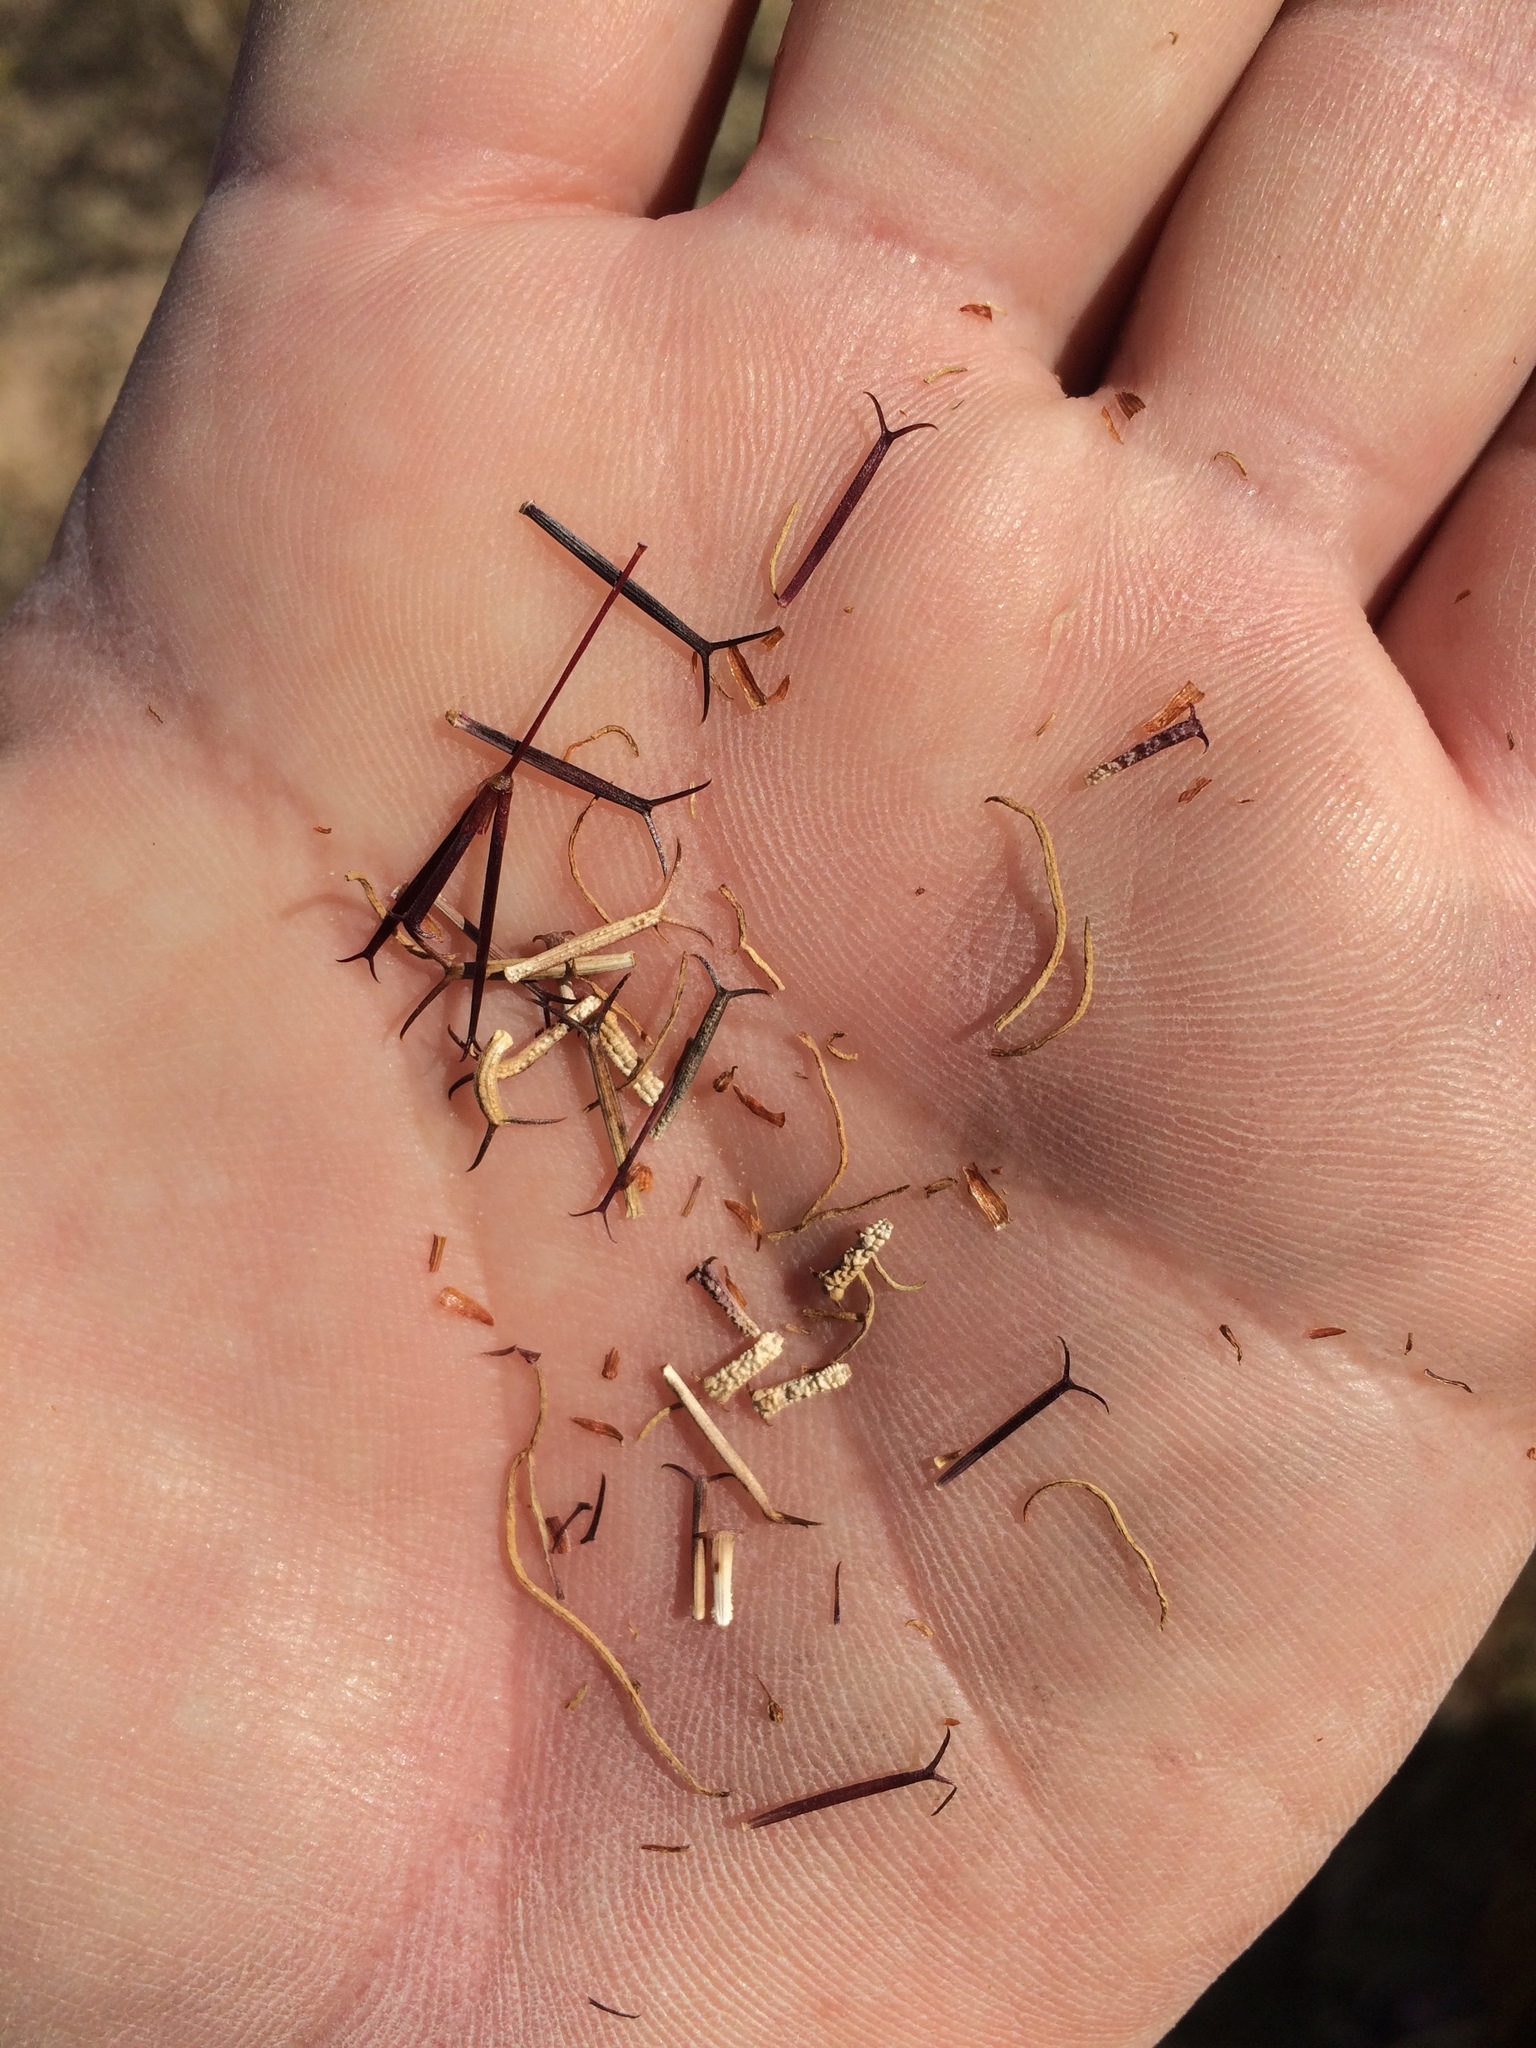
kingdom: Plantae
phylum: Tracheophyta
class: Magnoliopsida
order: Asterales
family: Asteraceae
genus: Dicranocarpus
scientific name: Dicranocarpus parviflorus
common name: Pitchfork
